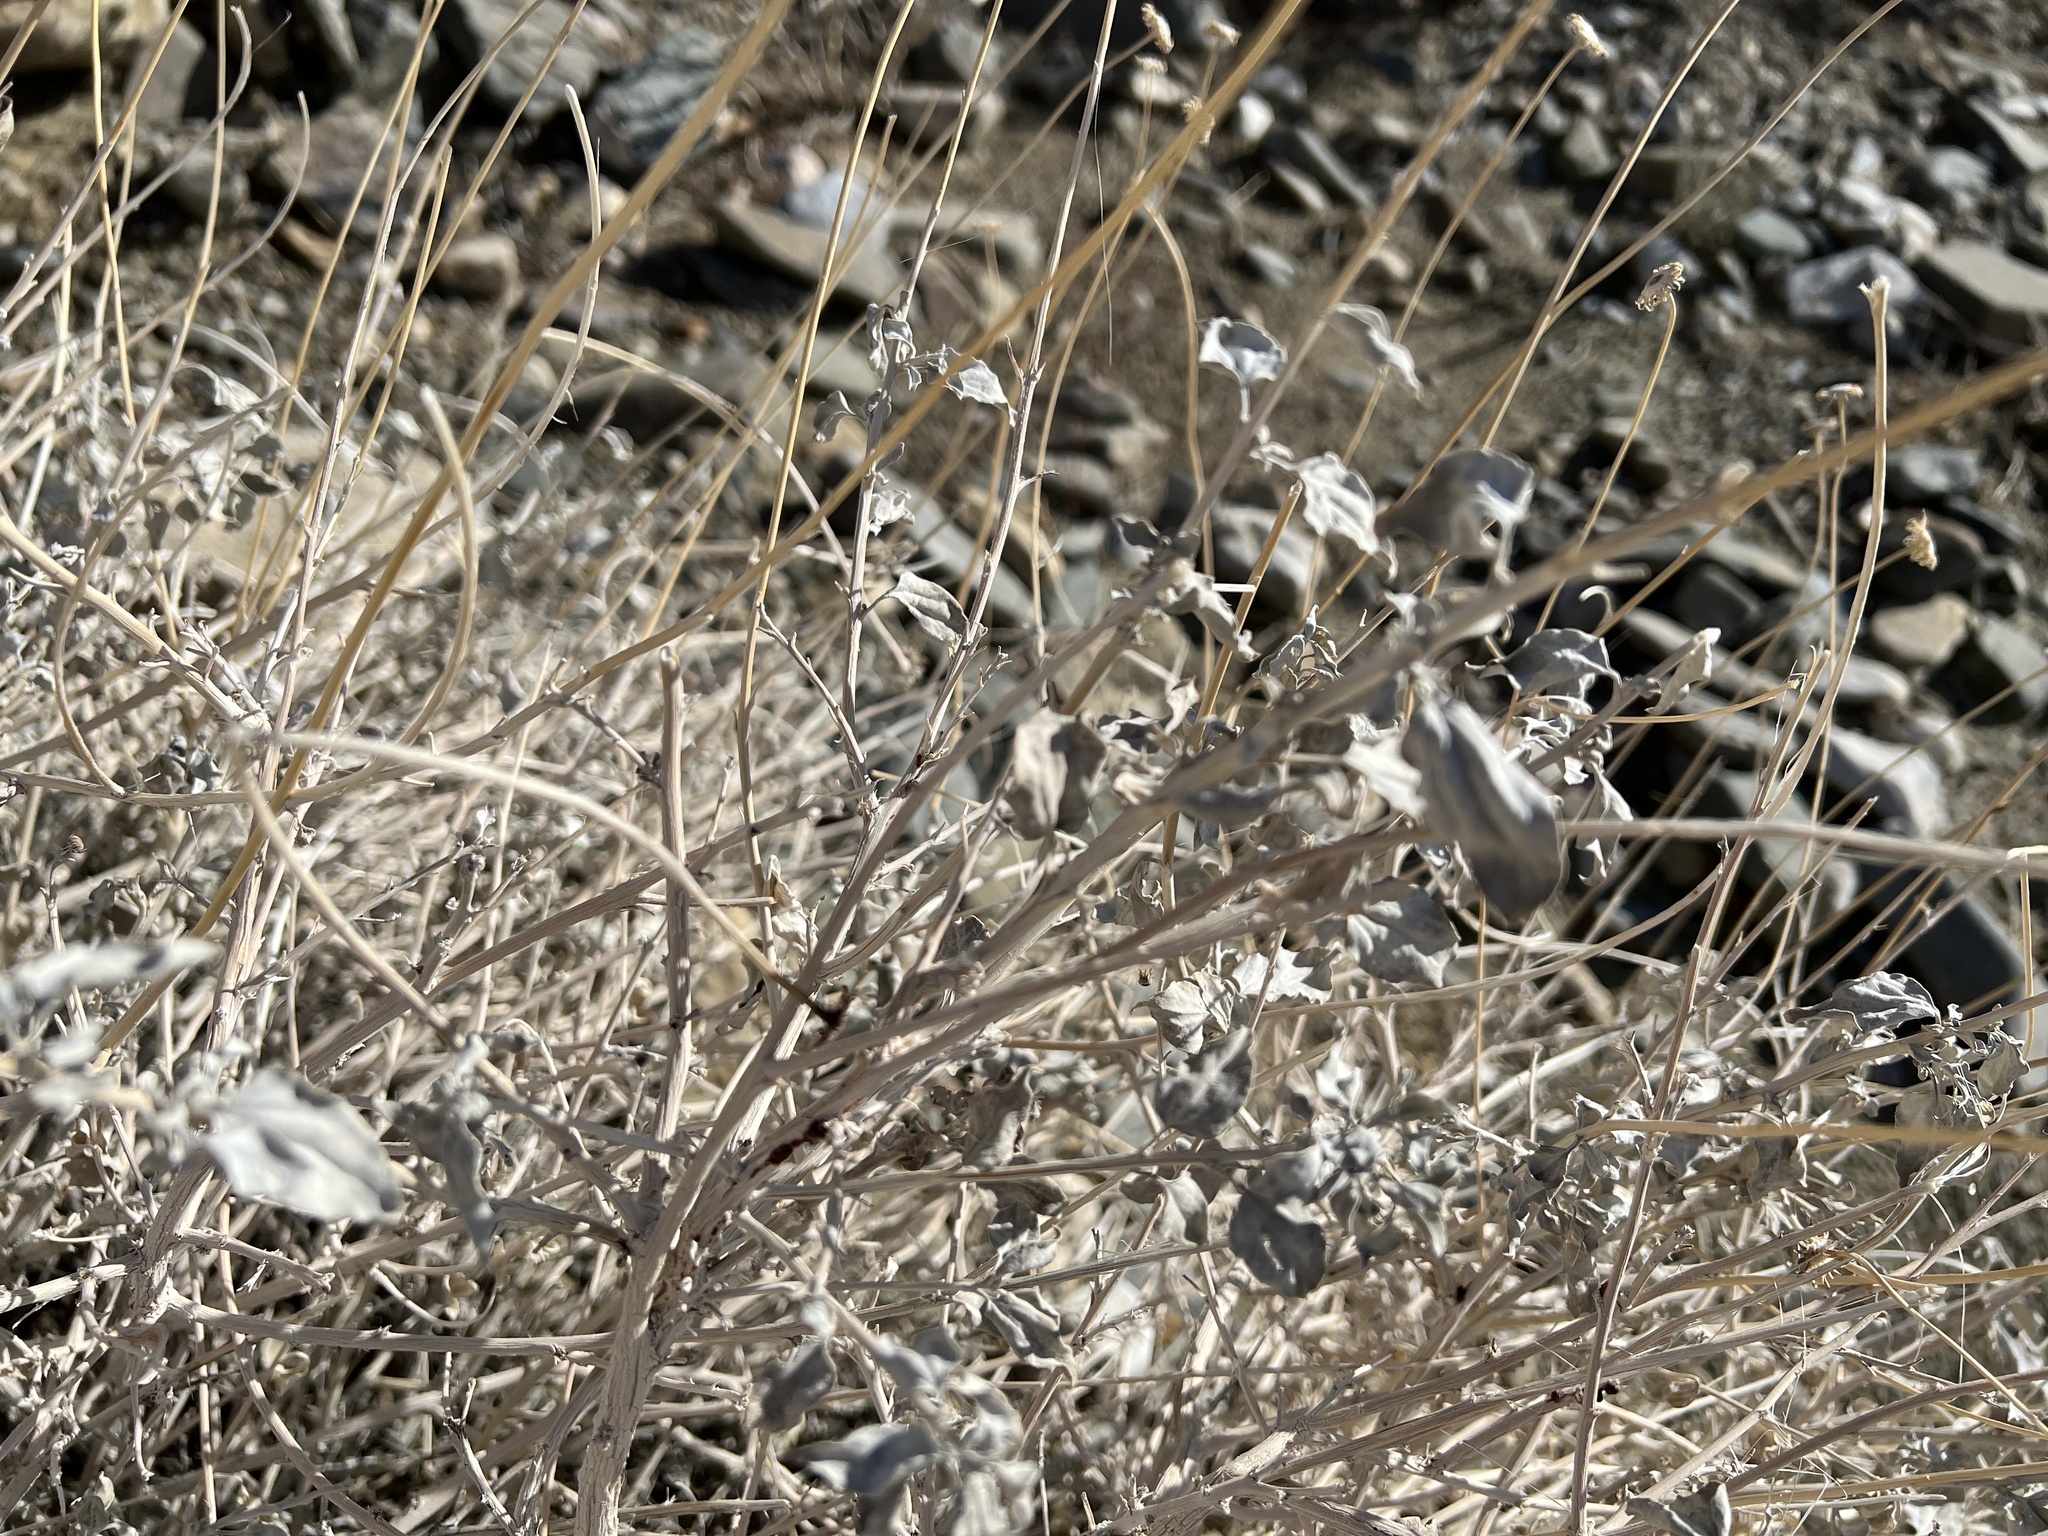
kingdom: Plantae
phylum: Tracheophyta
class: Magnoliopsida
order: Asterales
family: Asteraceae
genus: Encelia
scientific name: Encelia actoni
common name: Acton encelia
